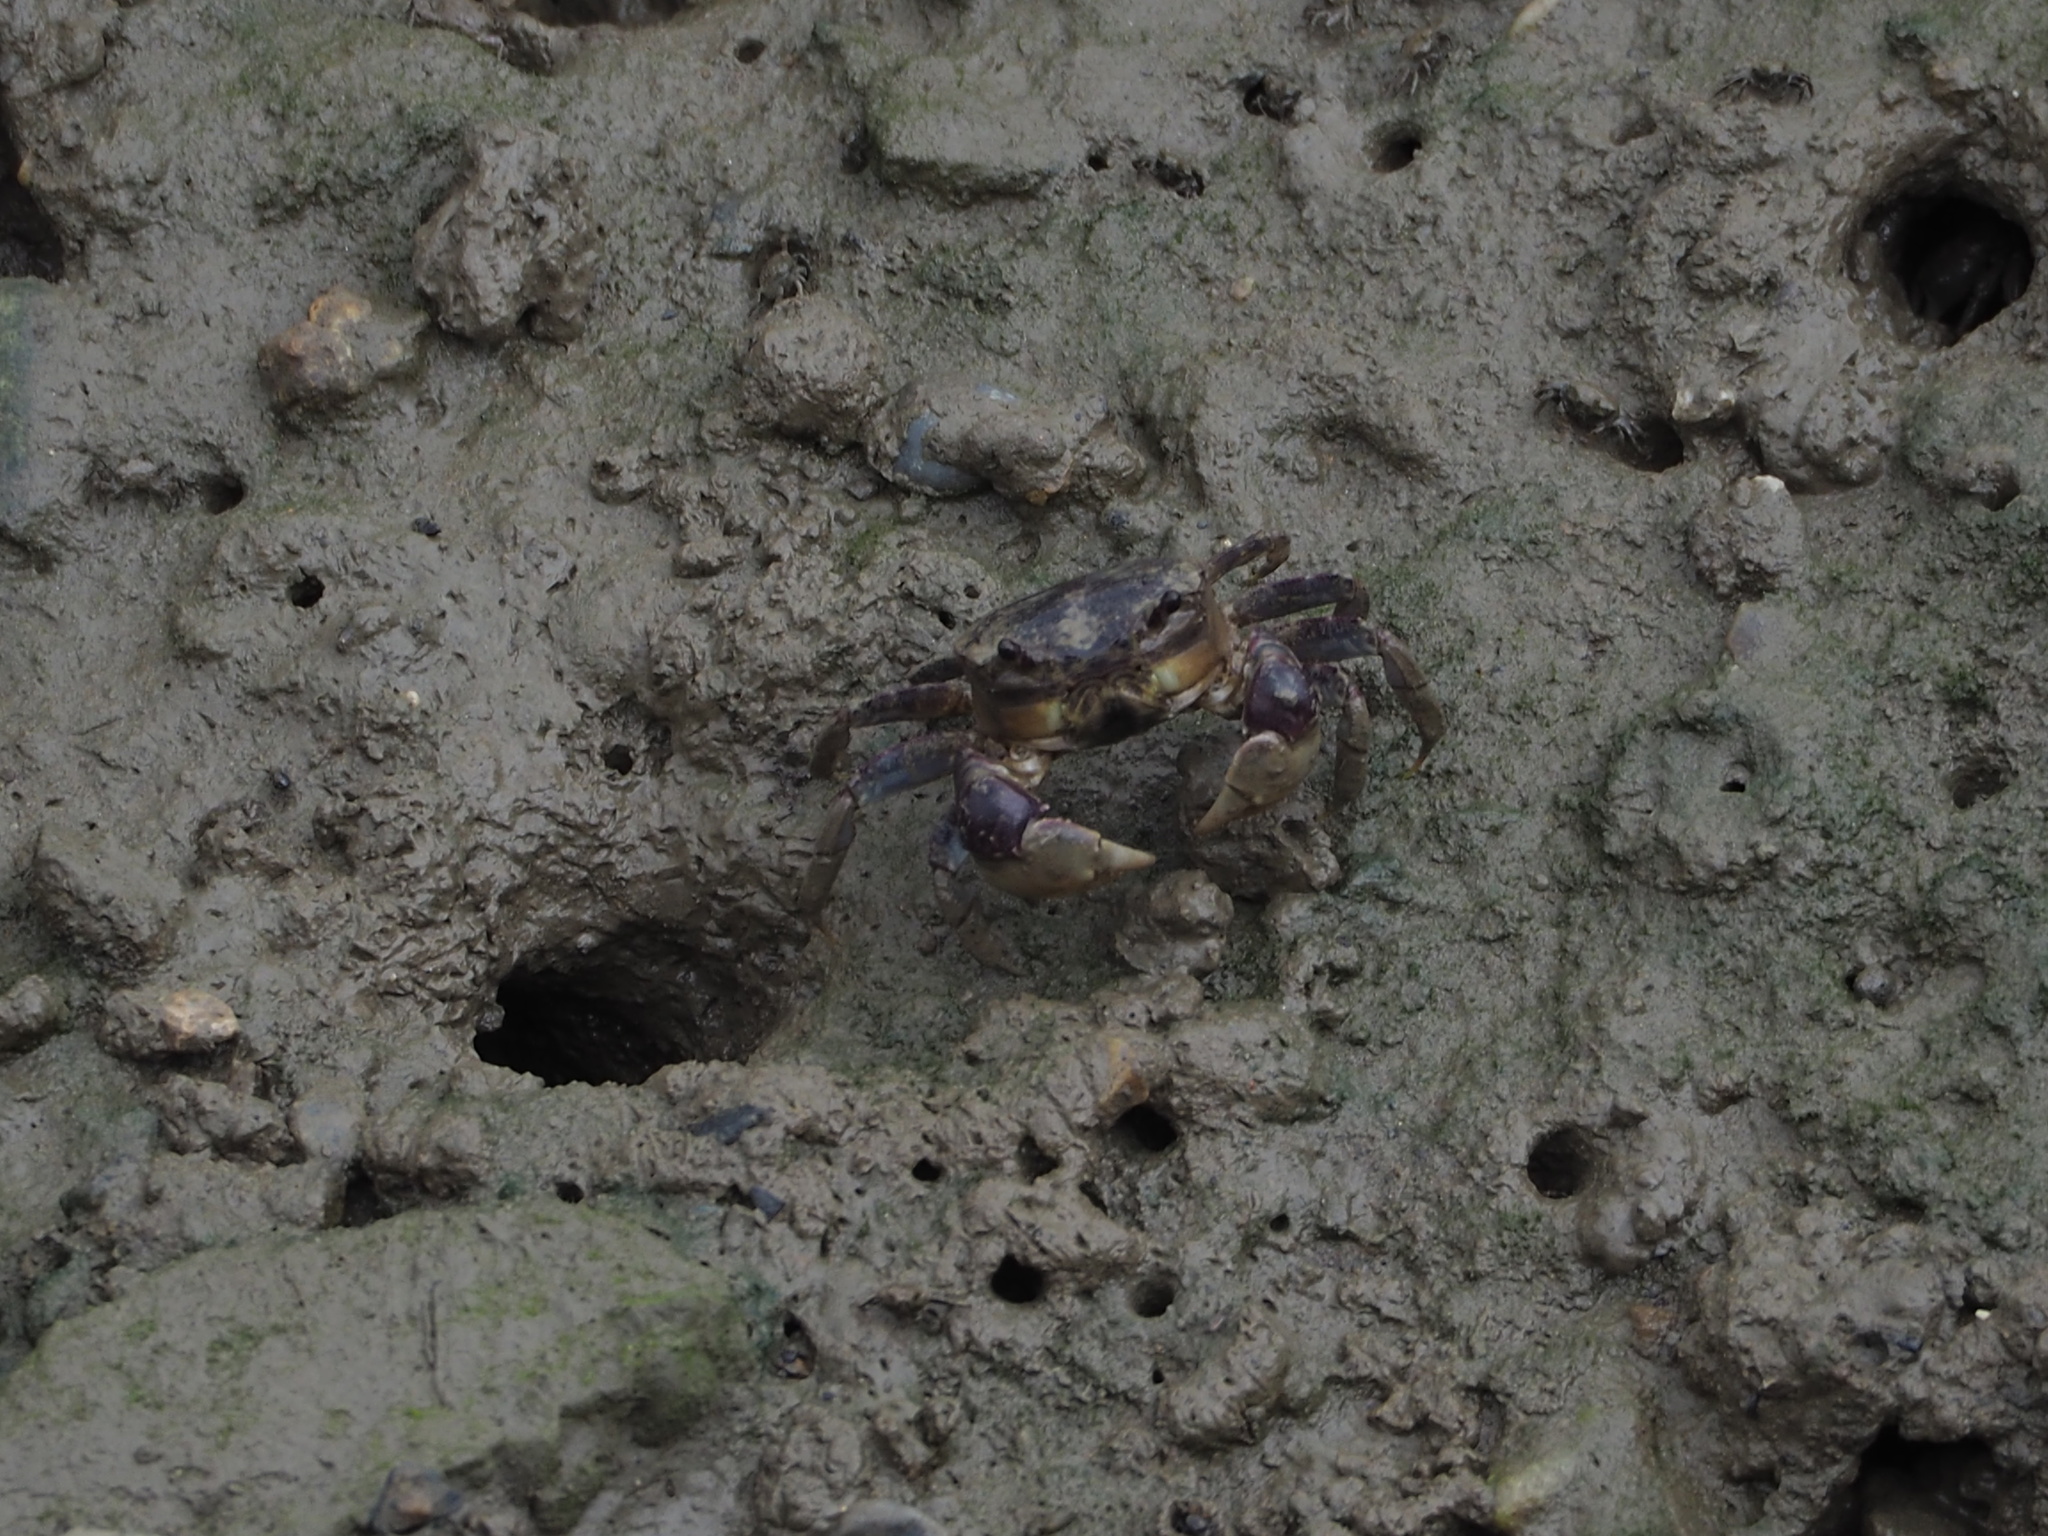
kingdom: Animalia
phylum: Arthropoda
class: Malacostraca
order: Decapoda
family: Varunidae
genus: Pseudohelice
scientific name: Pseudohelice subquadrata
